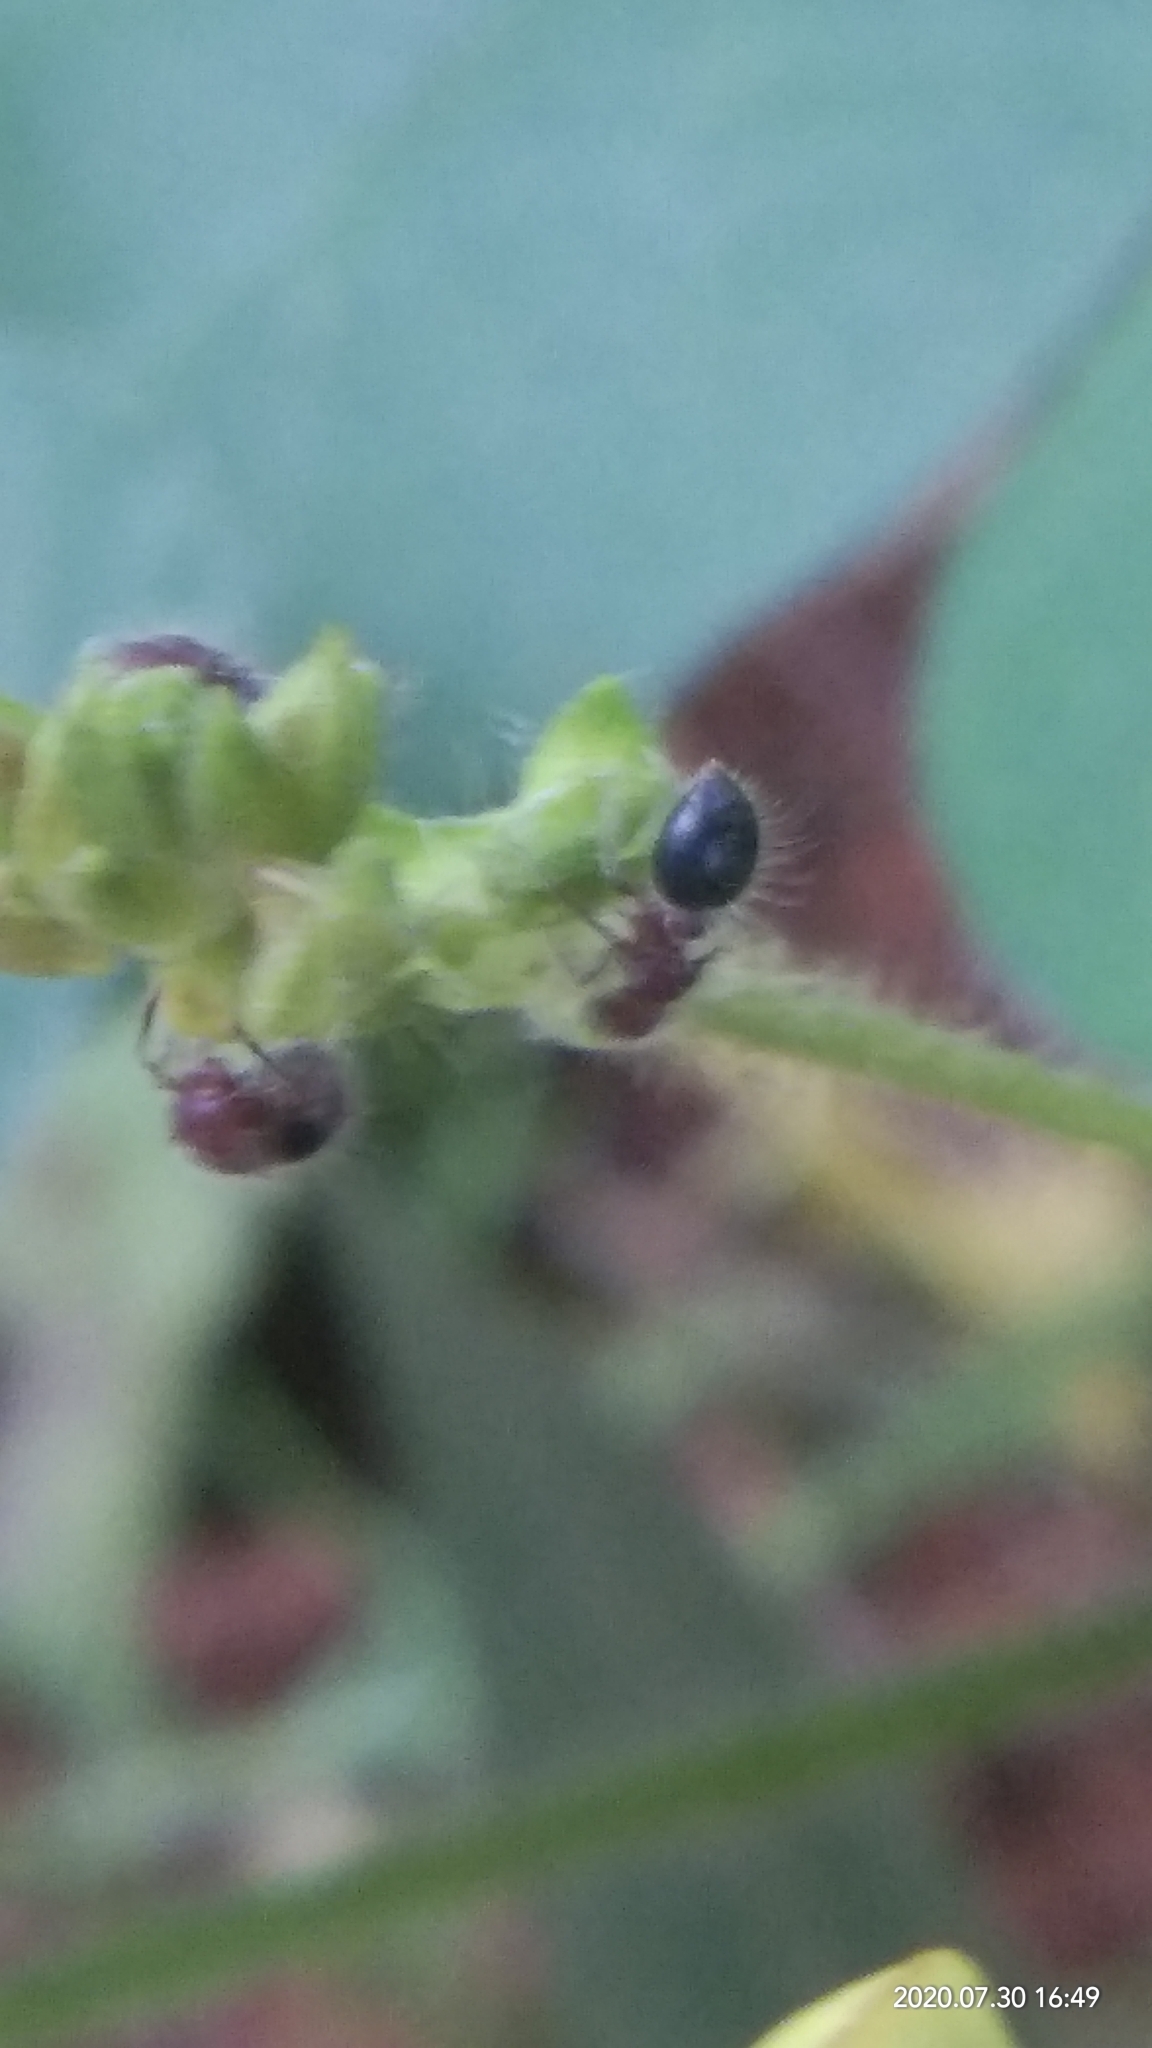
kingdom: Animalia
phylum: Arthropoda
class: Insecta
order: Hymenoptera
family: Formicidae
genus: Meranoplus
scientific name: Meranoplus bicolor
